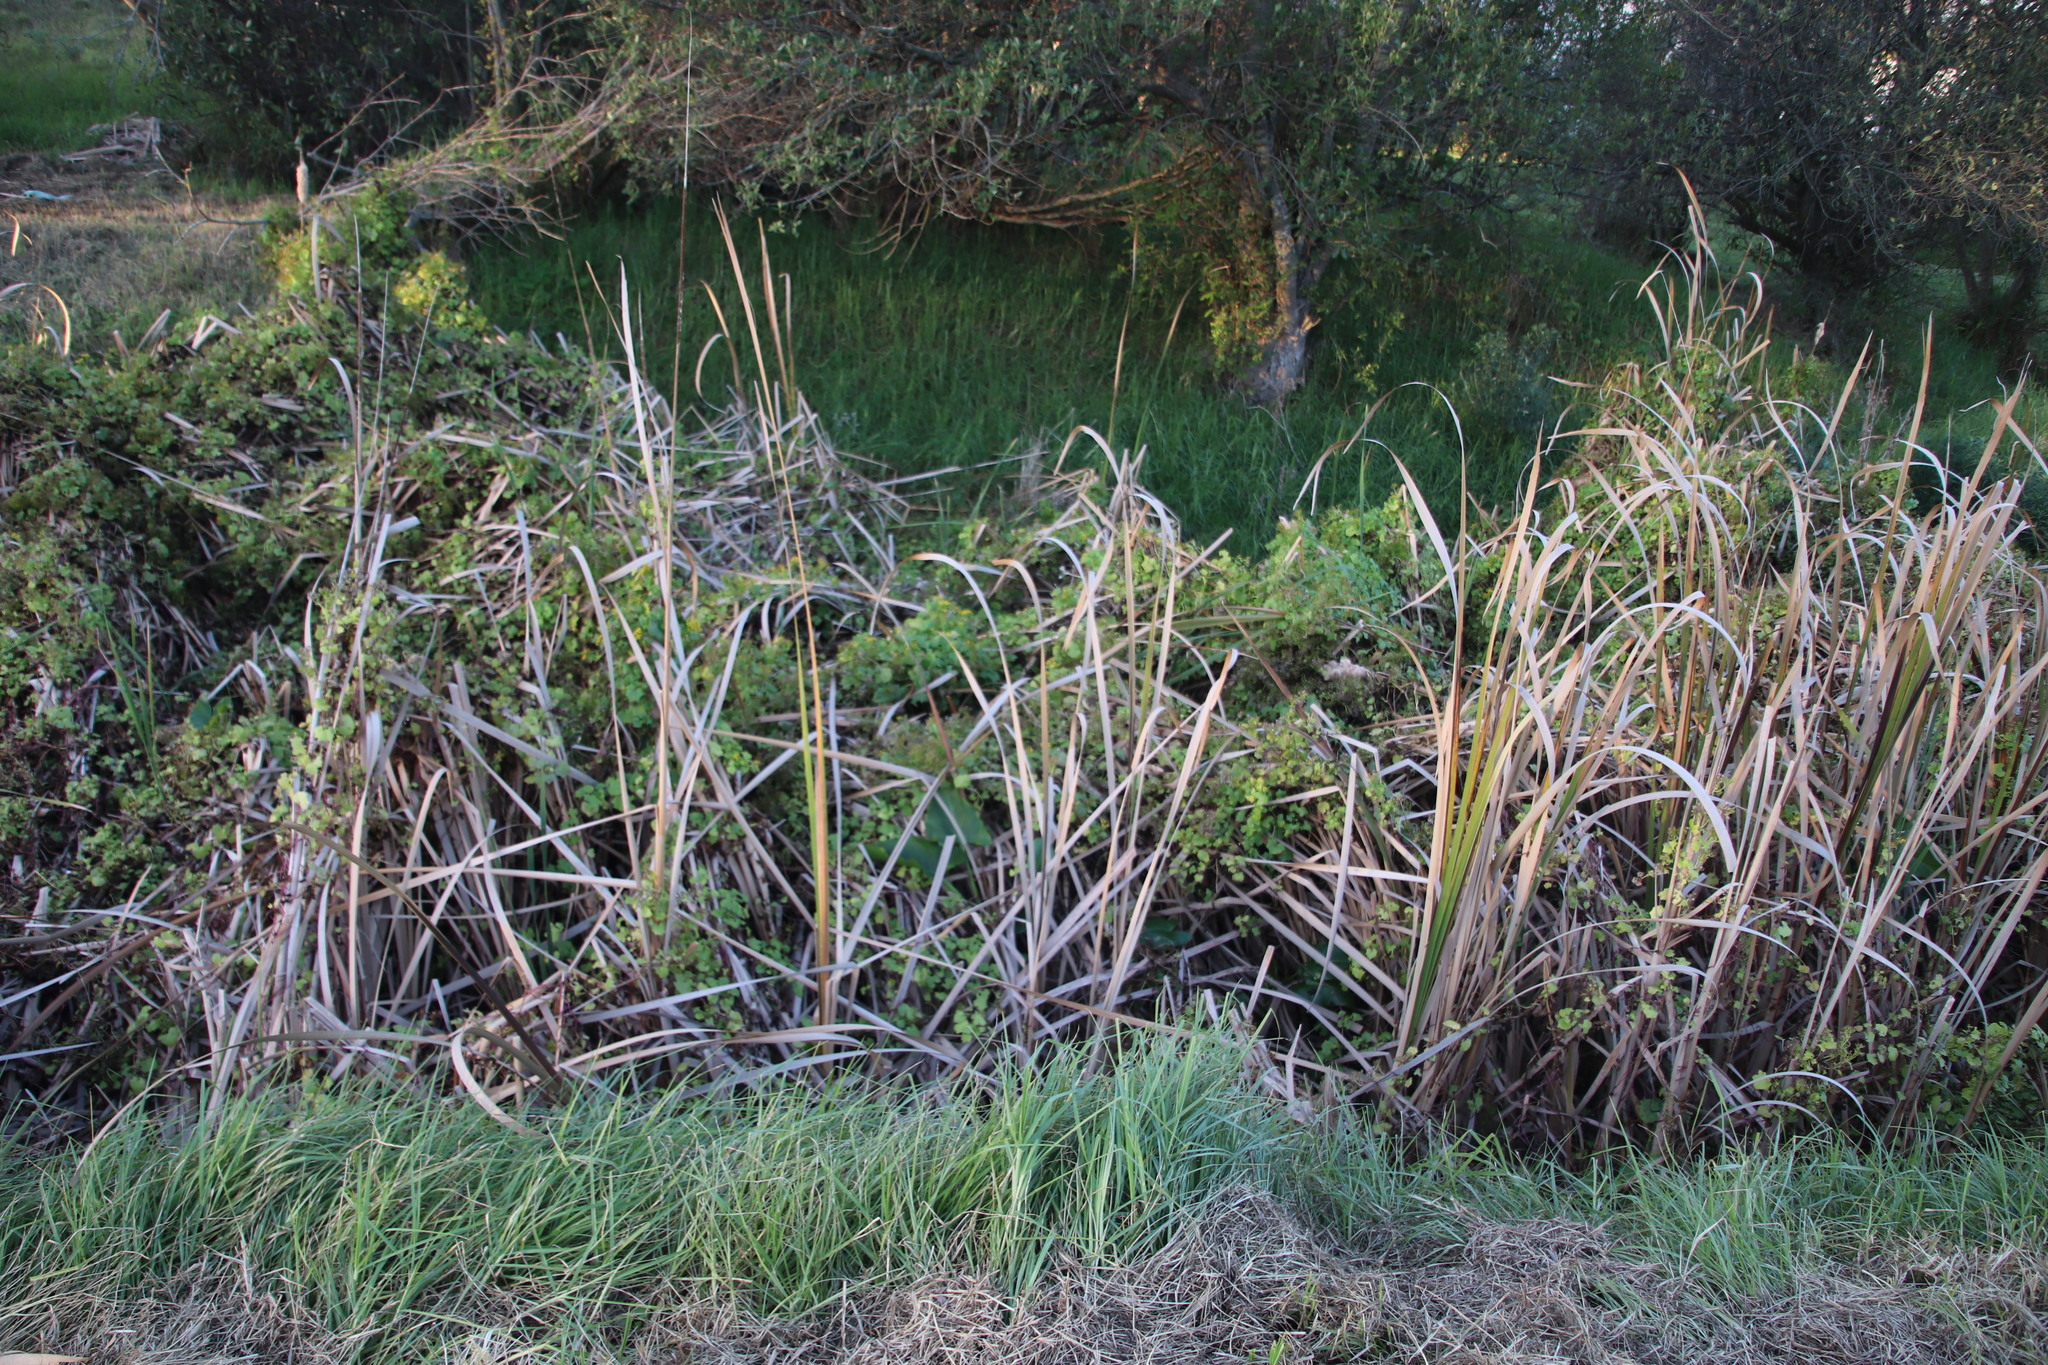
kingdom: Plantae
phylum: Tracheophyta
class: Magnoliopsida
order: Asterales
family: Asteraceae
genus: Senecio
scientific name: Senecio tamoides
